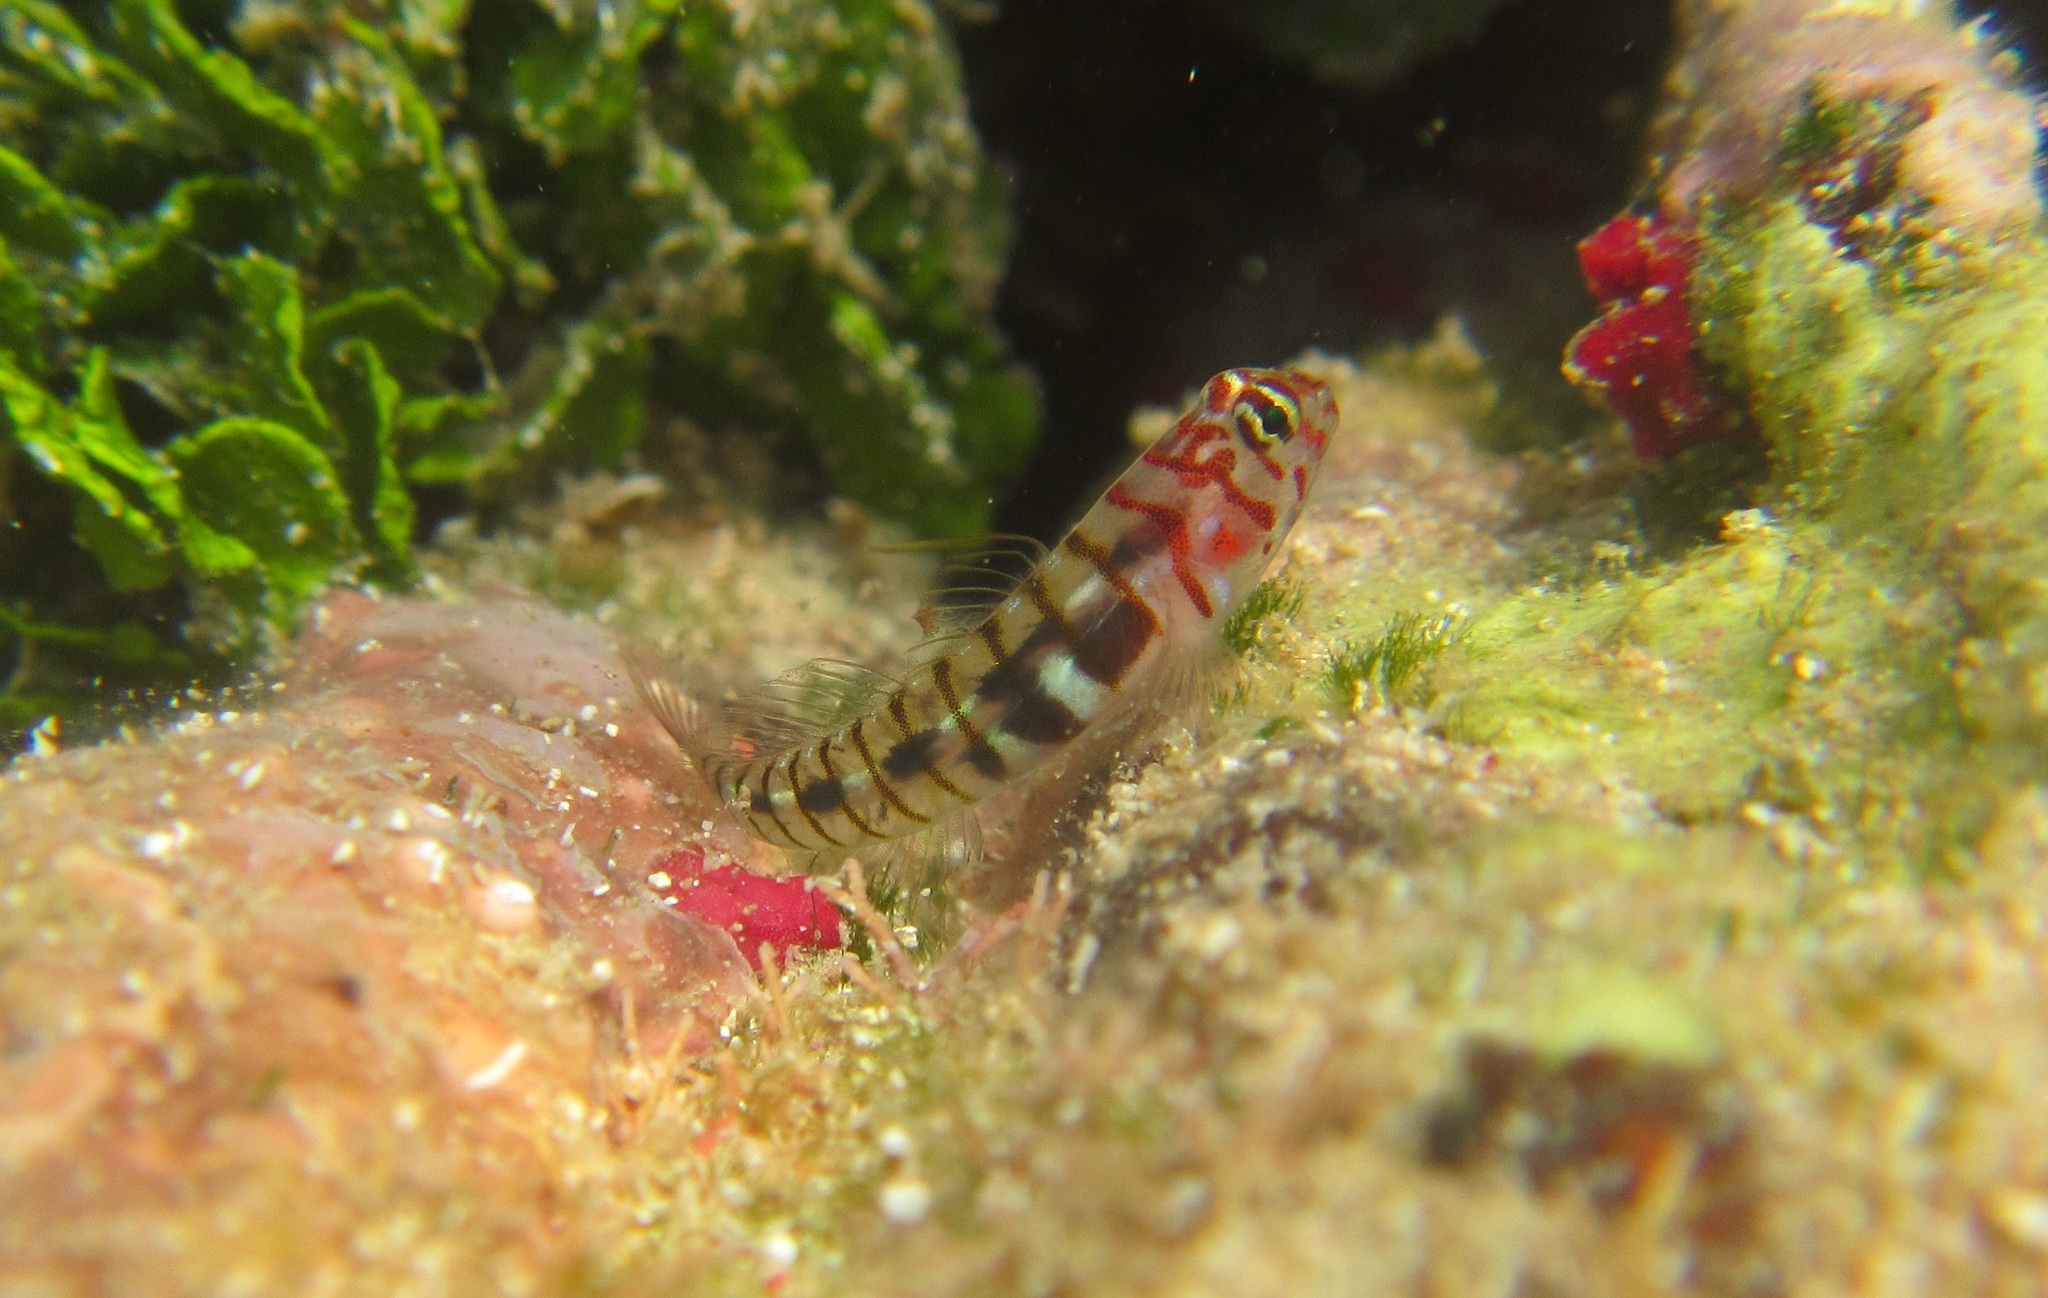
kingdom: Animalia
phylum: Chordata
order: Perciformes
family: Gobiidae
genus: Elacatinus
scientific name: Elacatinus redimiculus
